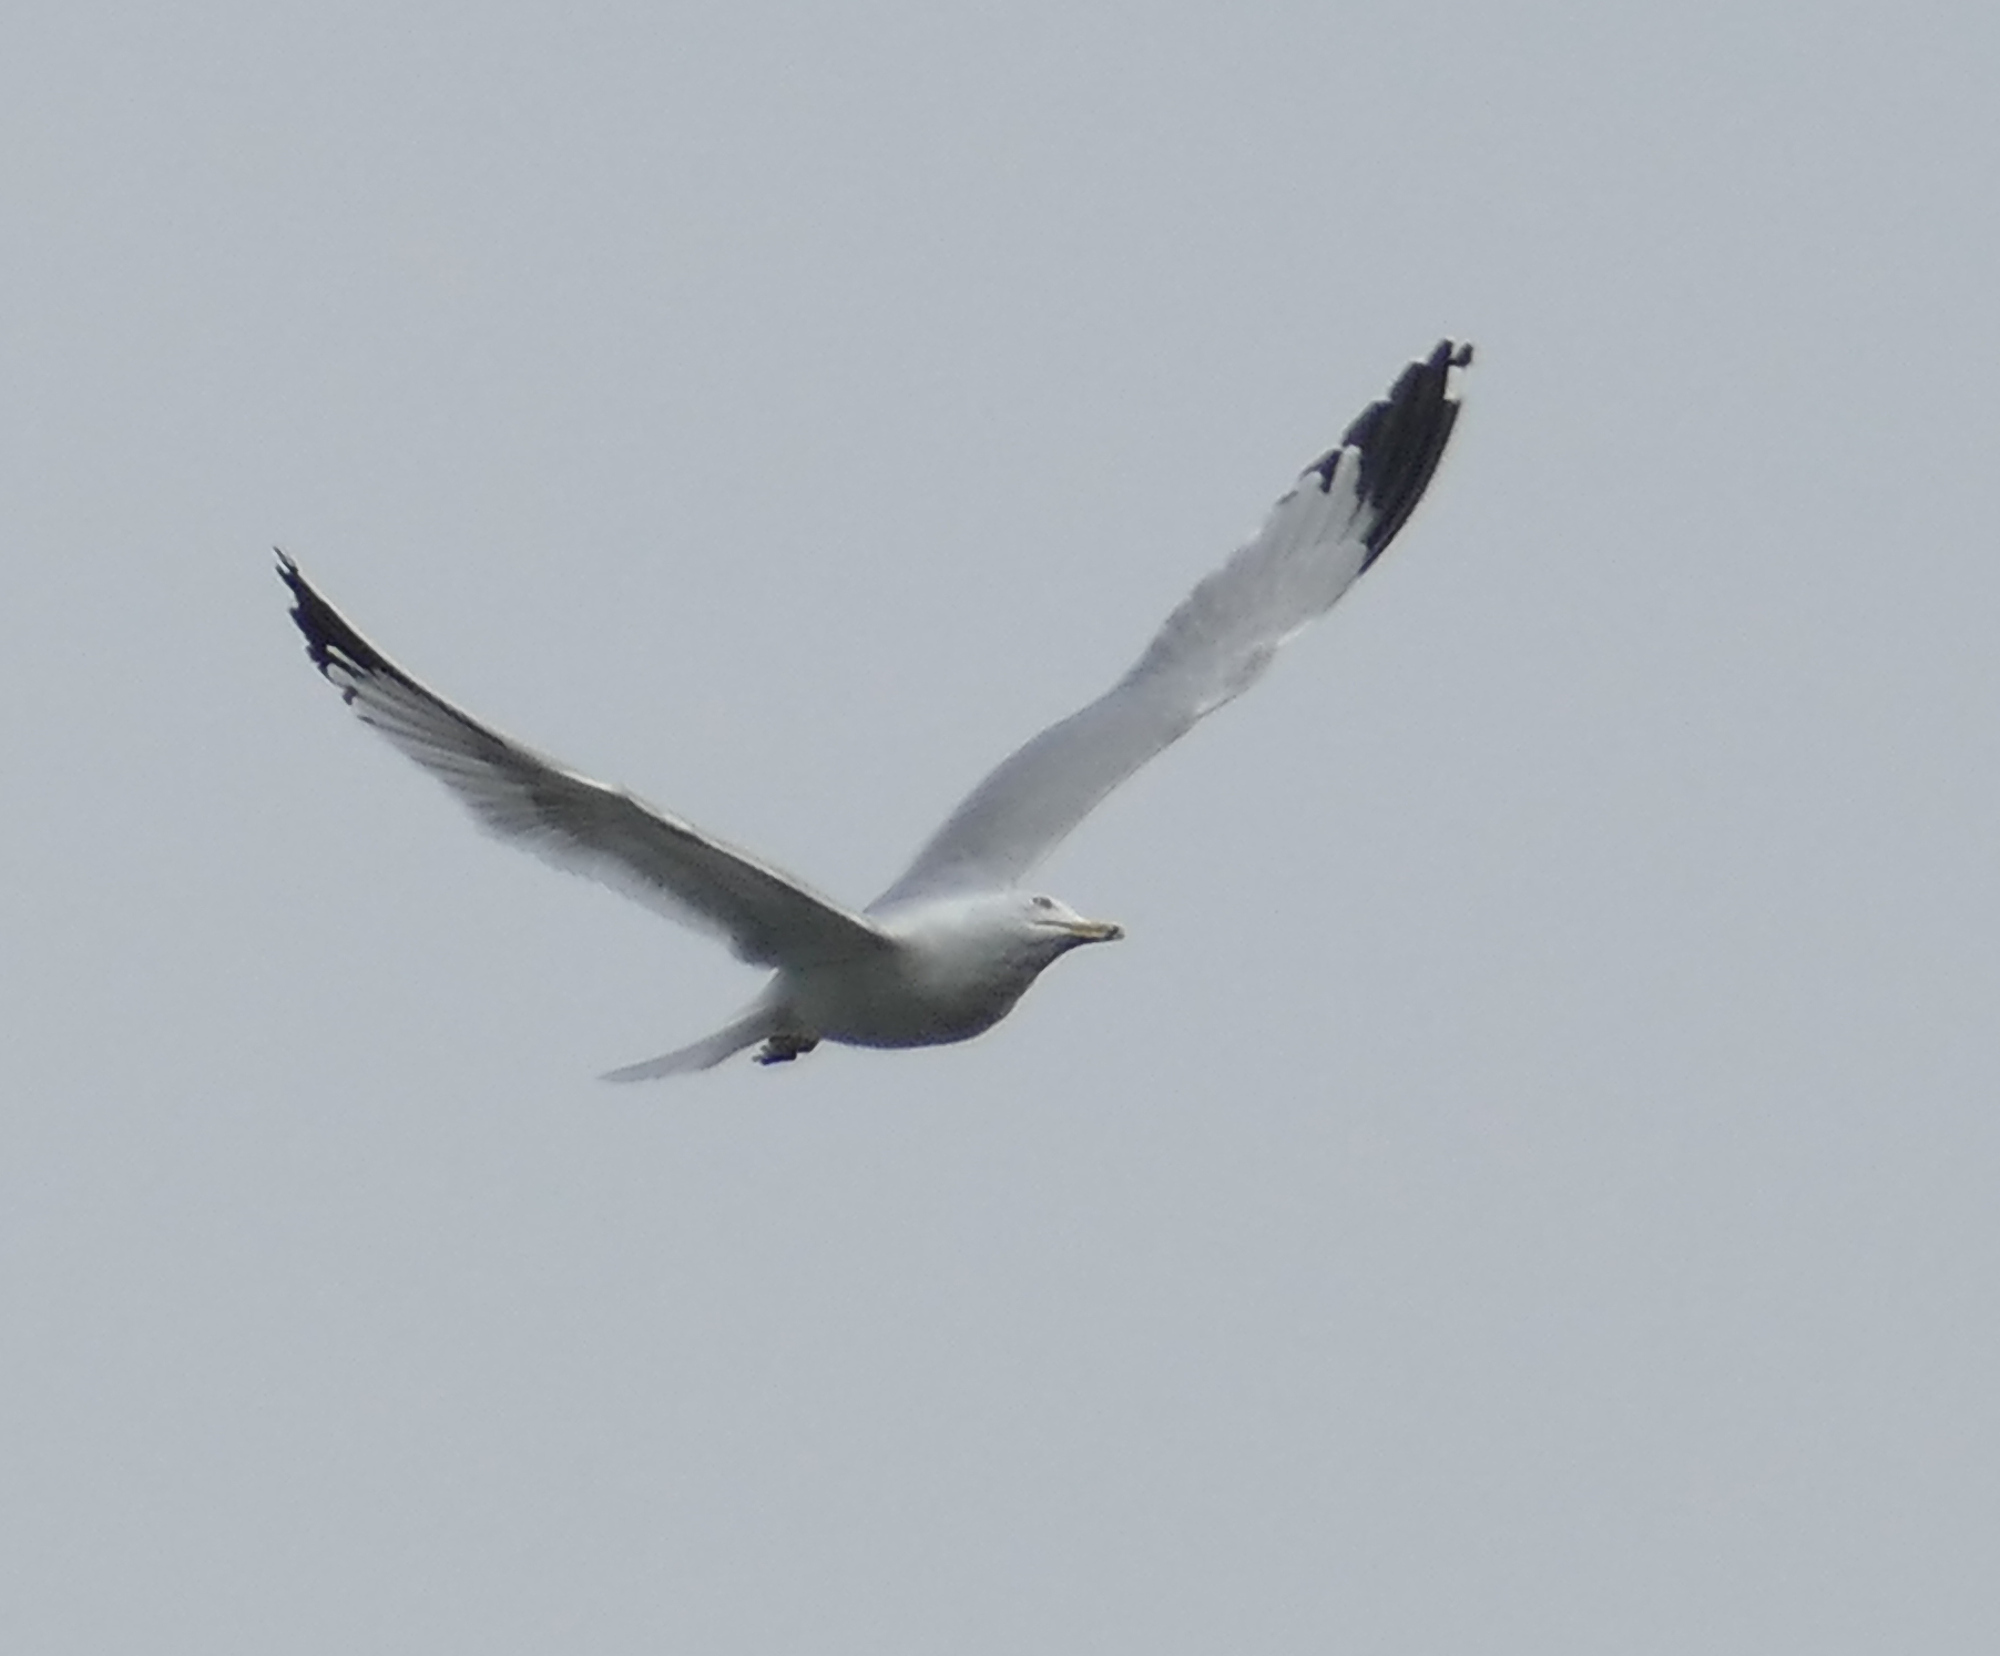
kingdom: Animalia
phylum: Chordata
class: Aves
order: Charadriiformes
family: Laridae
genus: Larus
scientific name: Larus delawarensis
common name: Ring-billed gull
